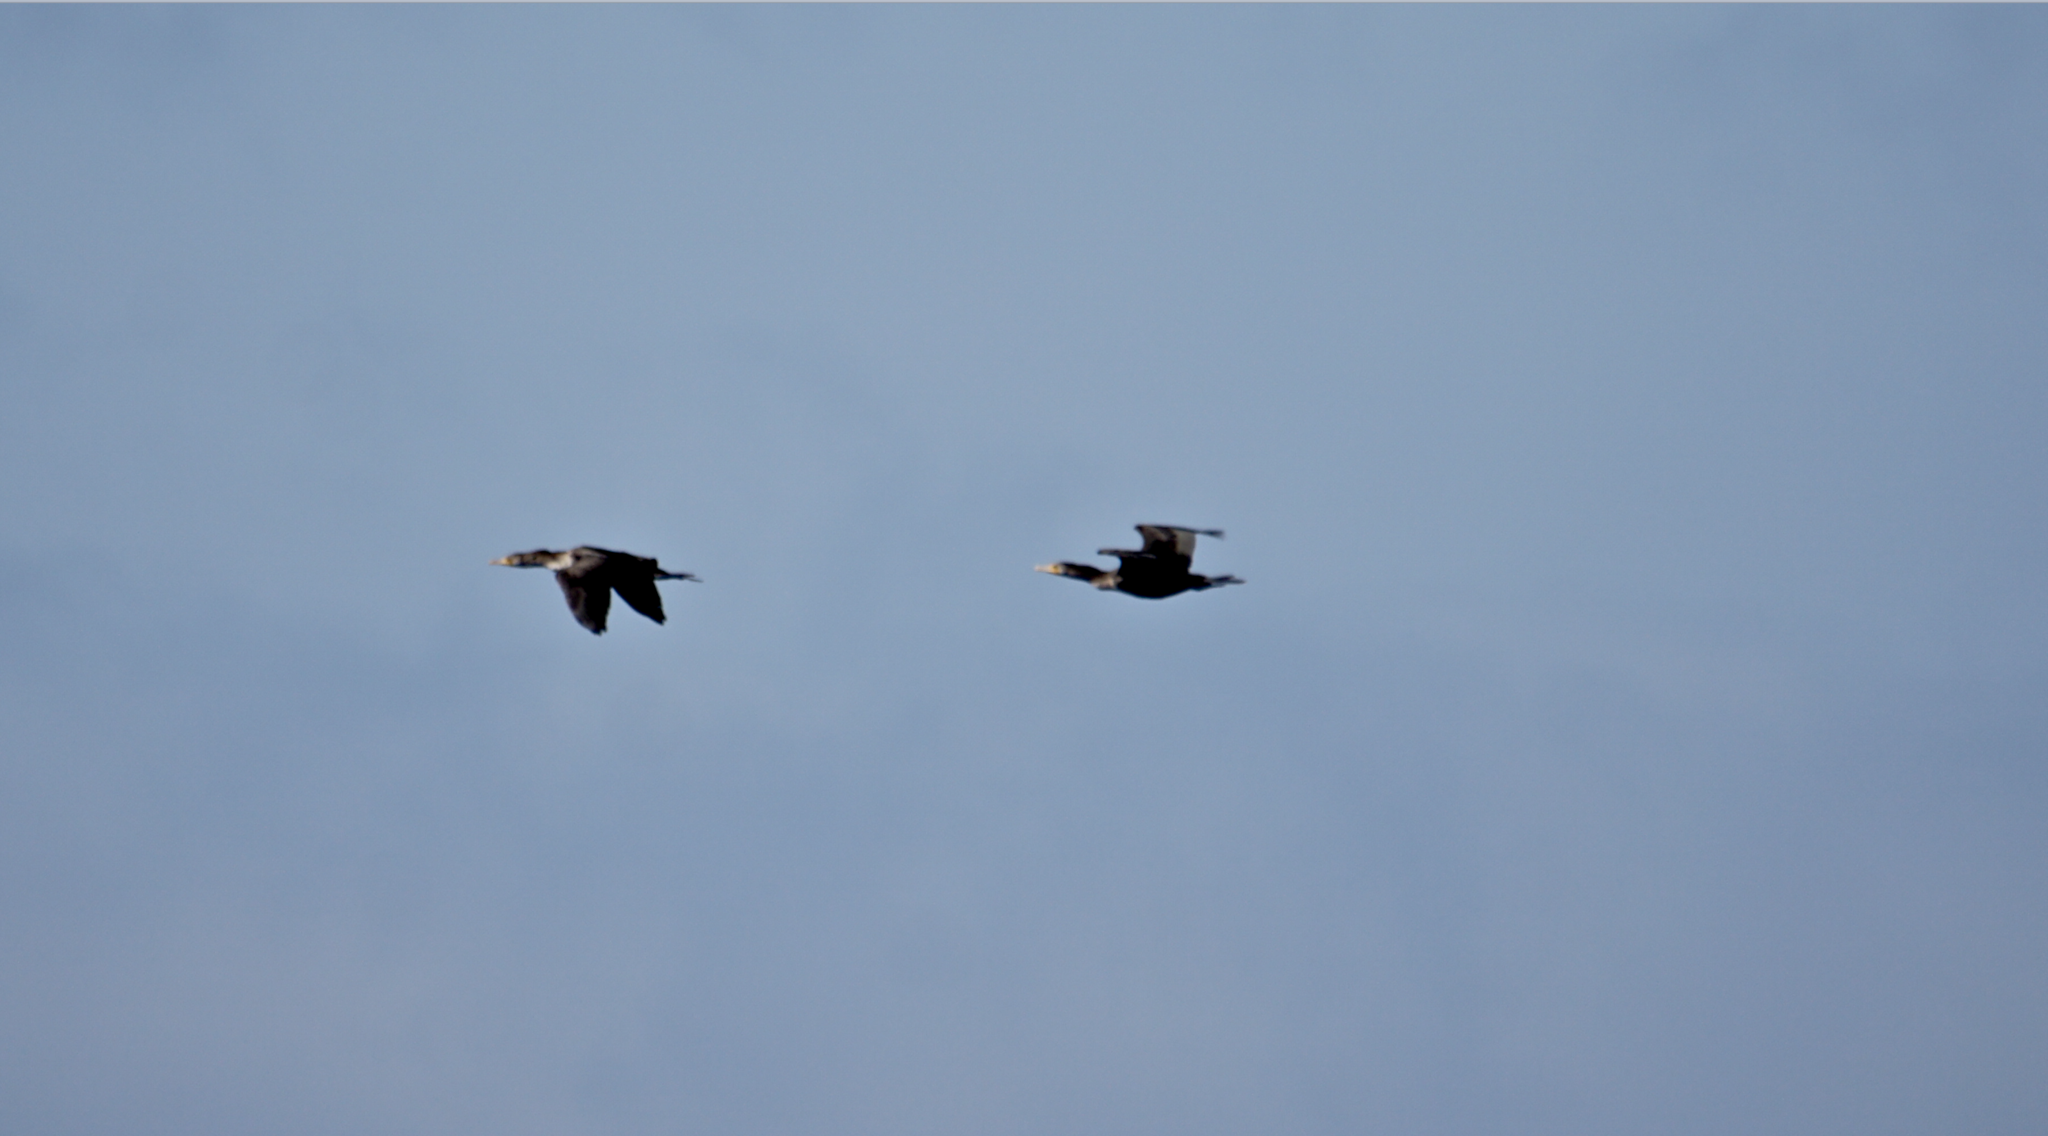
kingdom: Animalia
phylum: Chordata
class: Aves
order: Suliformes
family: Phalacrocoracidae
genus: Phalacrocorax
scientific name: Phalacrocorax auritus
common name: Double-crested cormorant
